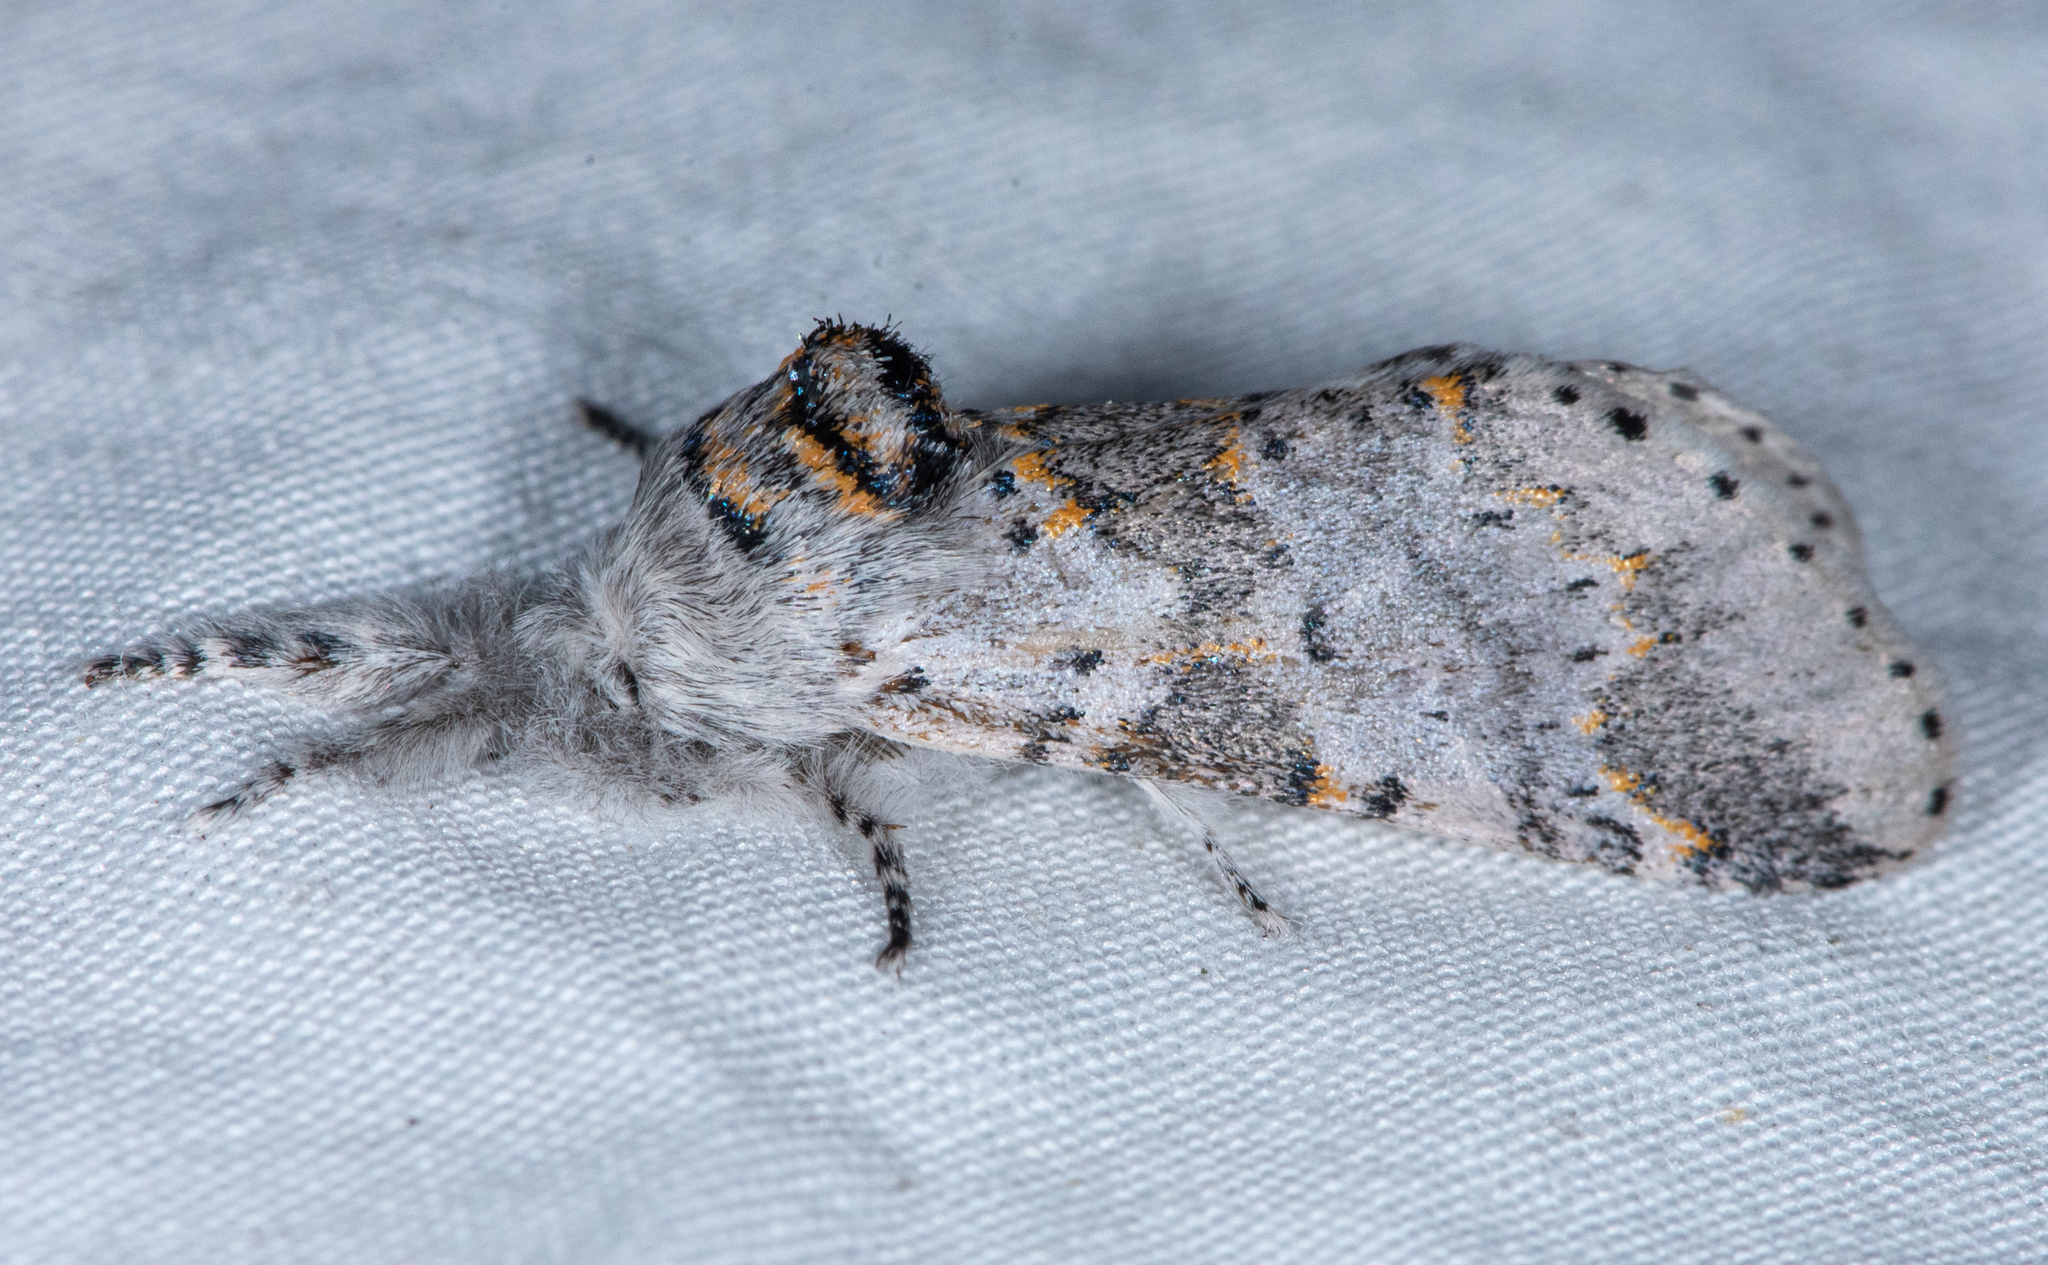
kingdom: Animalia
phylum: Arthropoda
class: Insecta
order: Lepidoptera
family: Notodontidae
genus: Furcula
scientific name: Furcula cinerea
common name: Gray furcula
